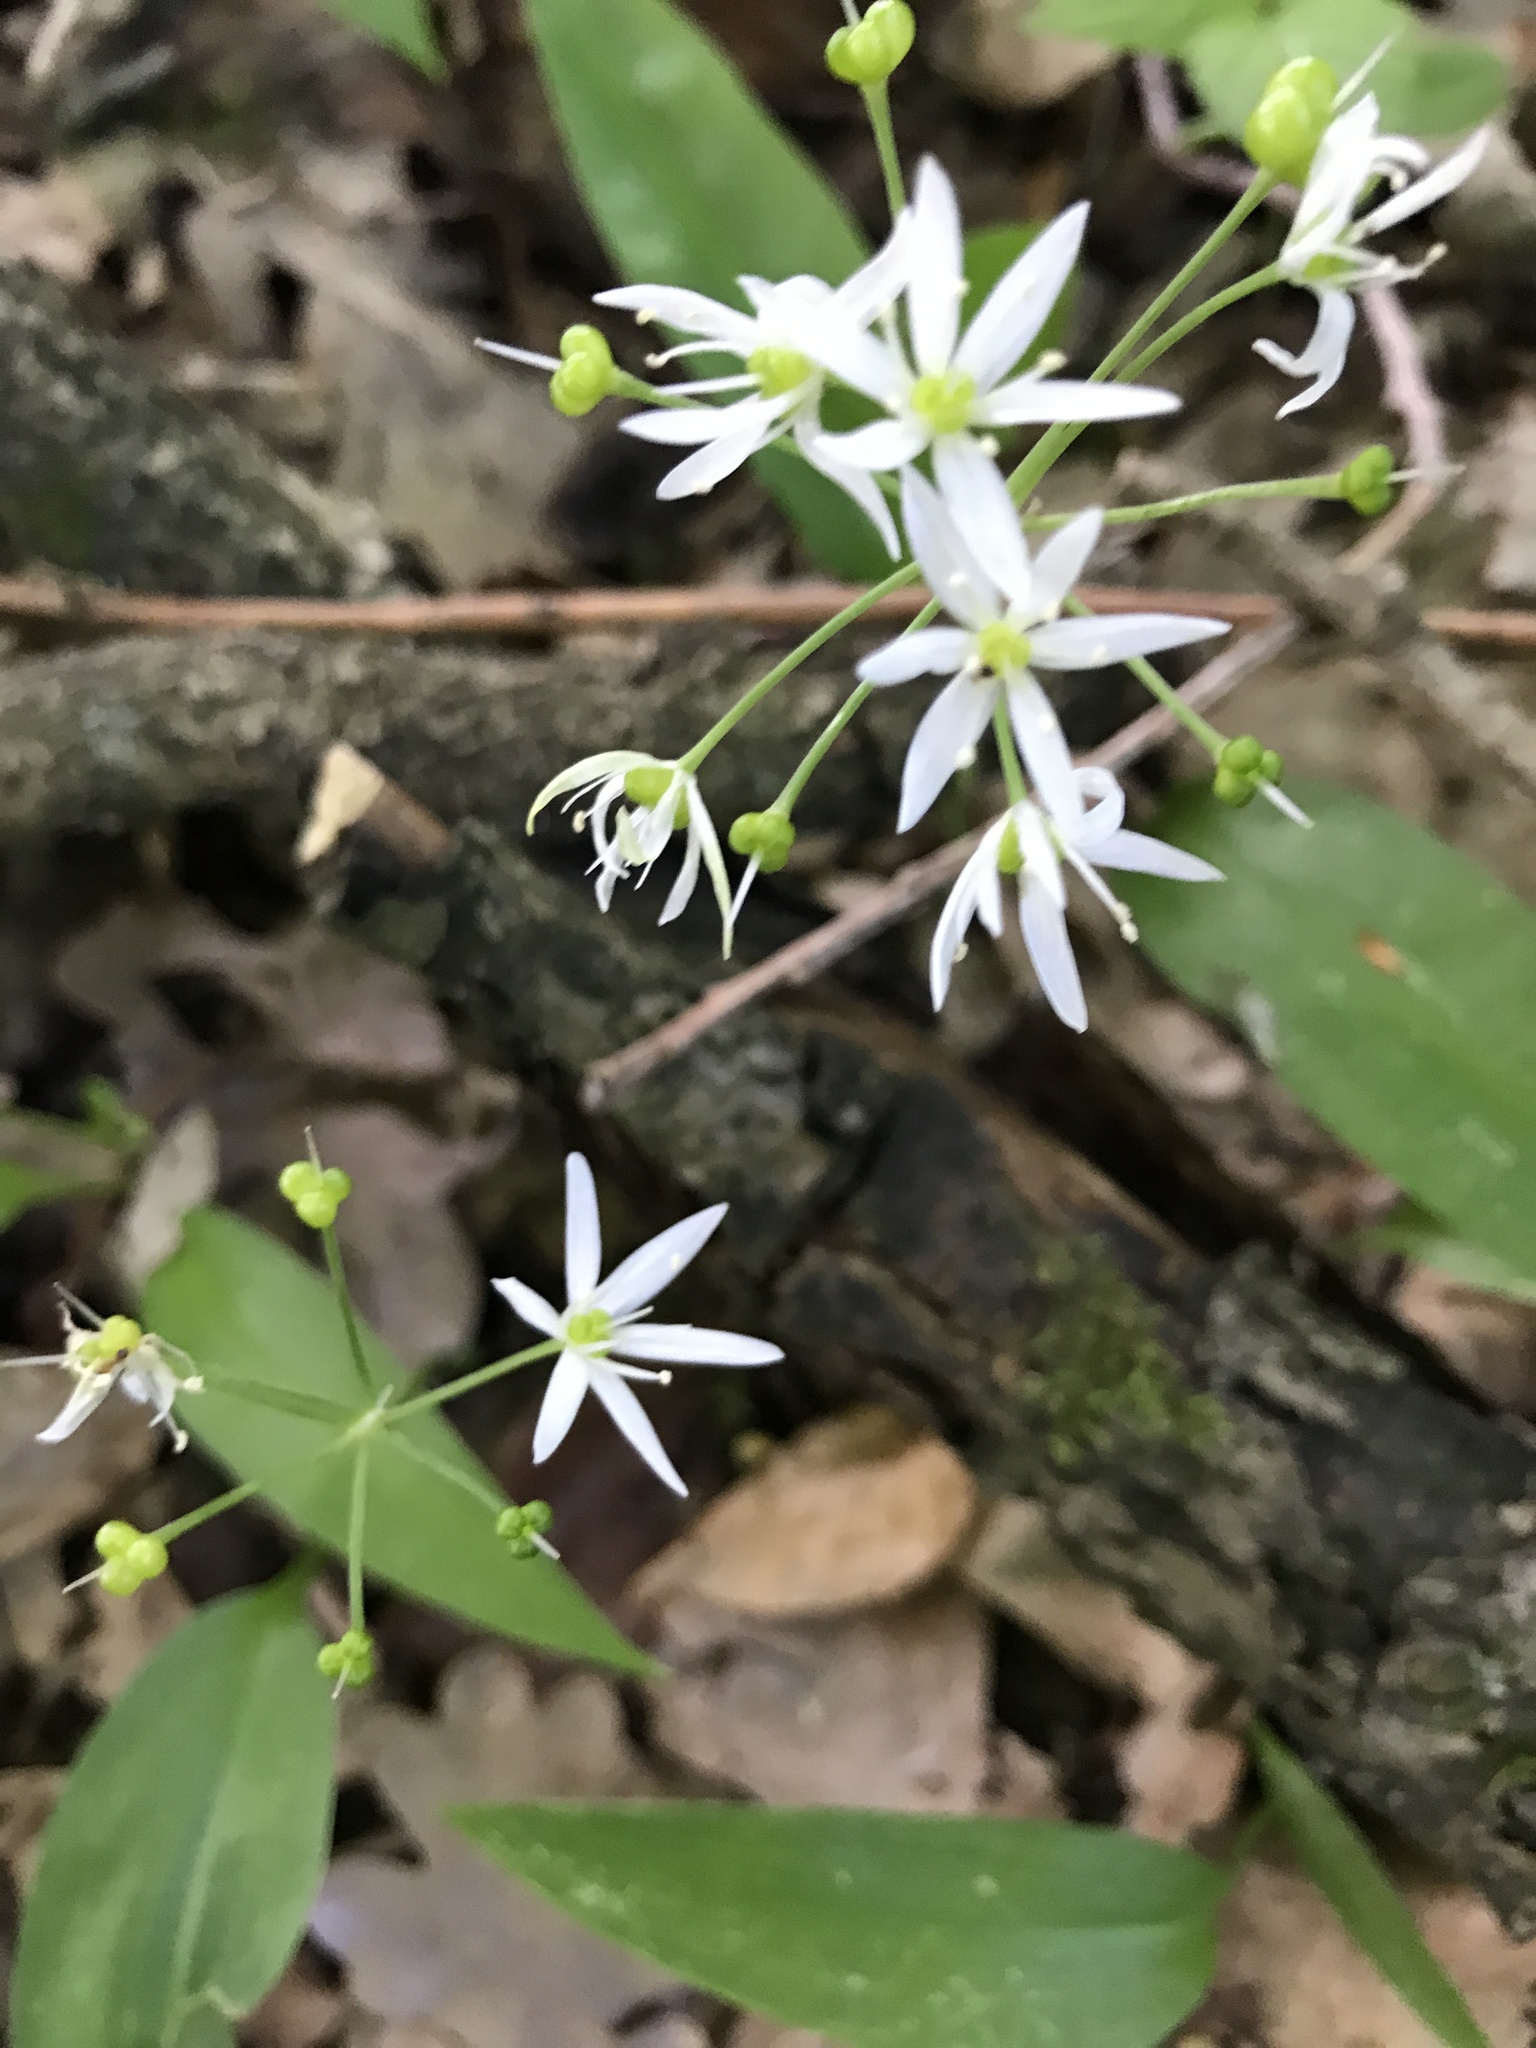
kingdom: Plantae
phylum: Tracheophyta
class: Liliopsida
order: Asparagales
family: Amaryllidaceae
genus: Allium
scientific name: Allium ursinum
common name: Ramsons
